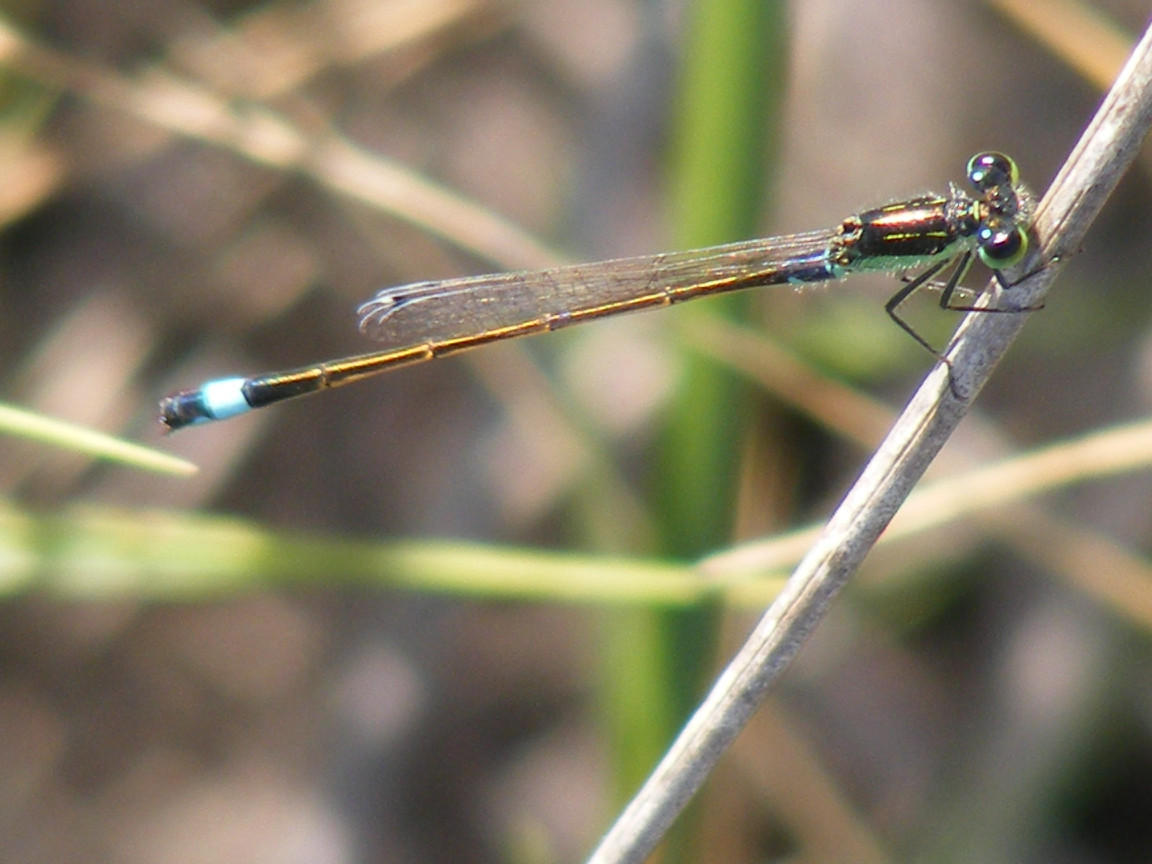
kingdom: Animalia
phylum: Arthropoda
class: Insecta
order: Odonata
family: Coenagrionidae
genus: Ischnura
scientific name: Ischnura senegalensis
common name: Tropical bluetail
